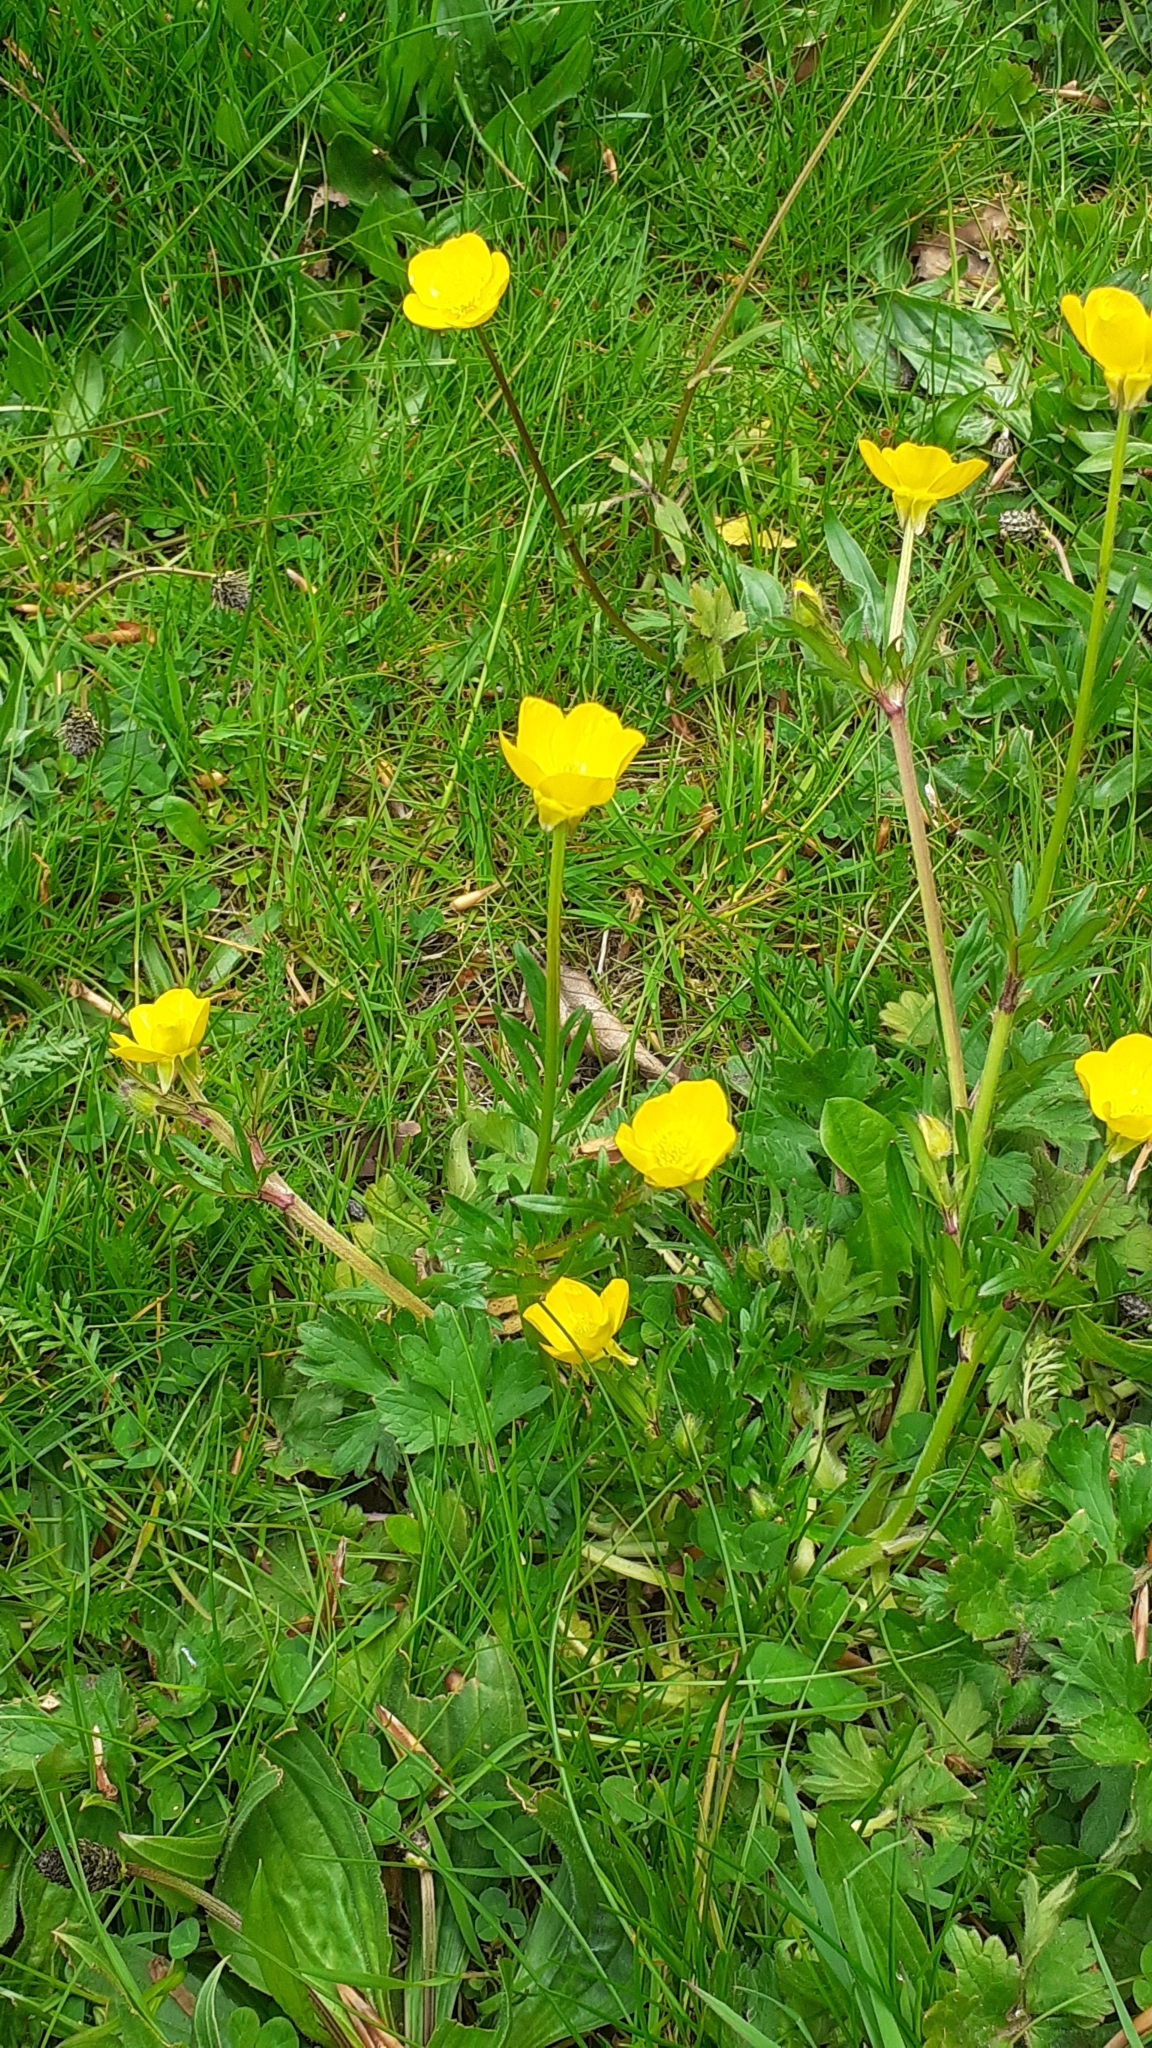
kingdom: Plantae
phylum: Tracheophyta
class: Magnoliopsida
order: Ranunculales
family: Ranunculaceae
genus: Ranunculus
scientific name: Ranunculus bulbosus
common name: Bulbous buttercup
